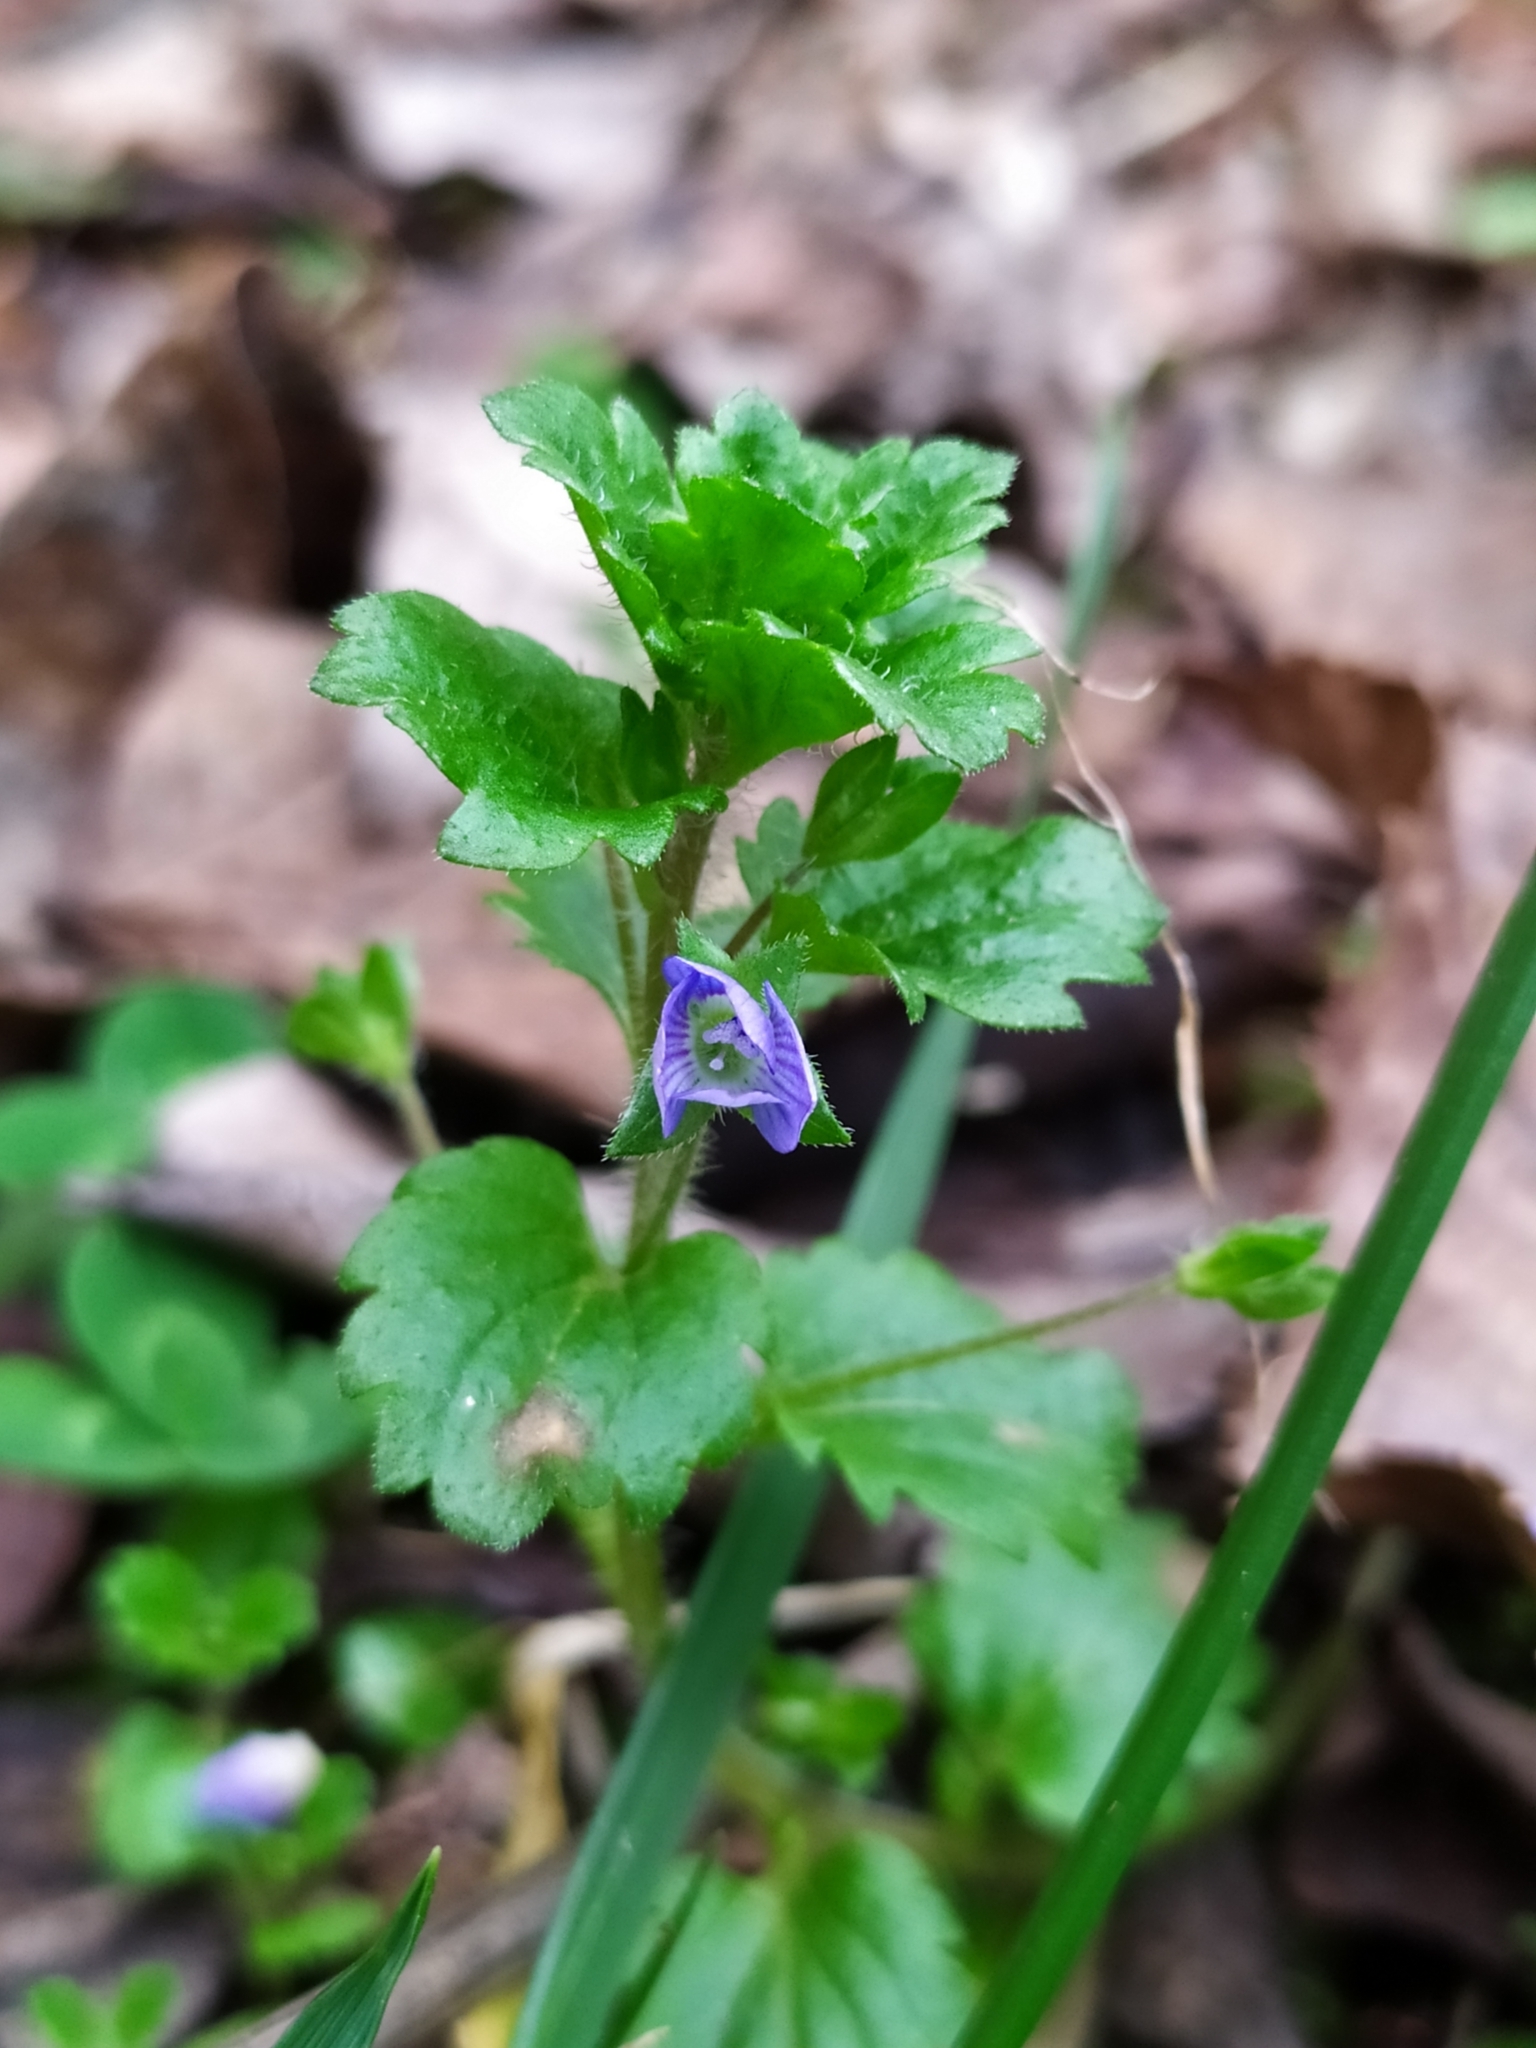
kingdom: Plantae
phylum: Tracheophyta
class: Magnoliopsida
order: Lamiales
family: Plantaginaceae
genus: Veronica
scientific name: Veronica persica
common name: Common field-speedwell
